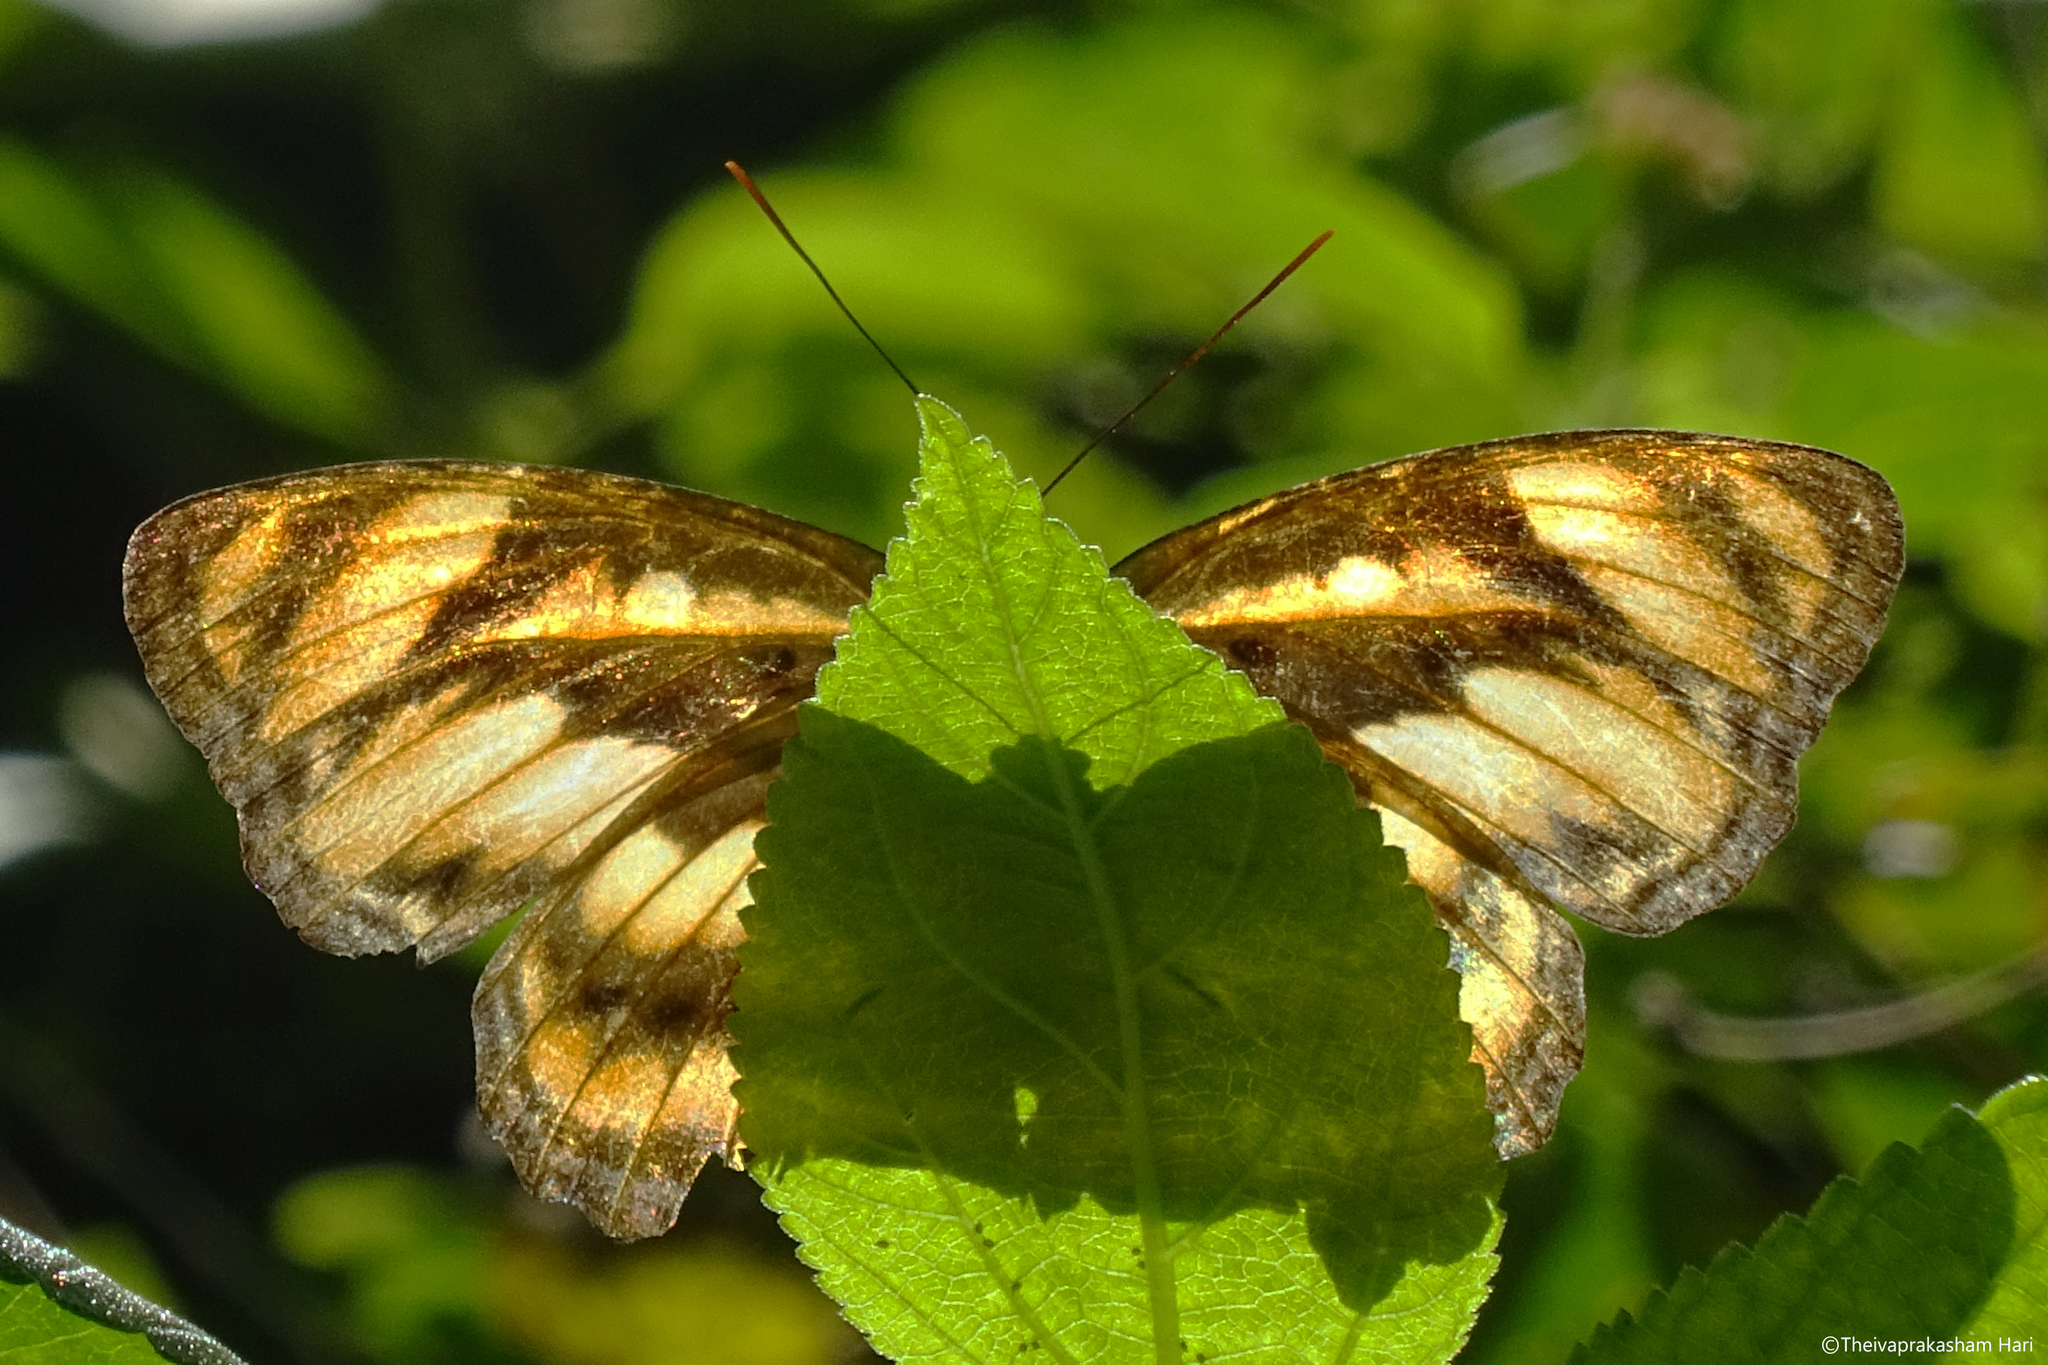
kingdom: Animalia
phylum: Arthropoda
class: Insecta
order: Lepidoptera
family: Nymphalidae
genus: Parathyma
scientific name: Parathyma nefte
